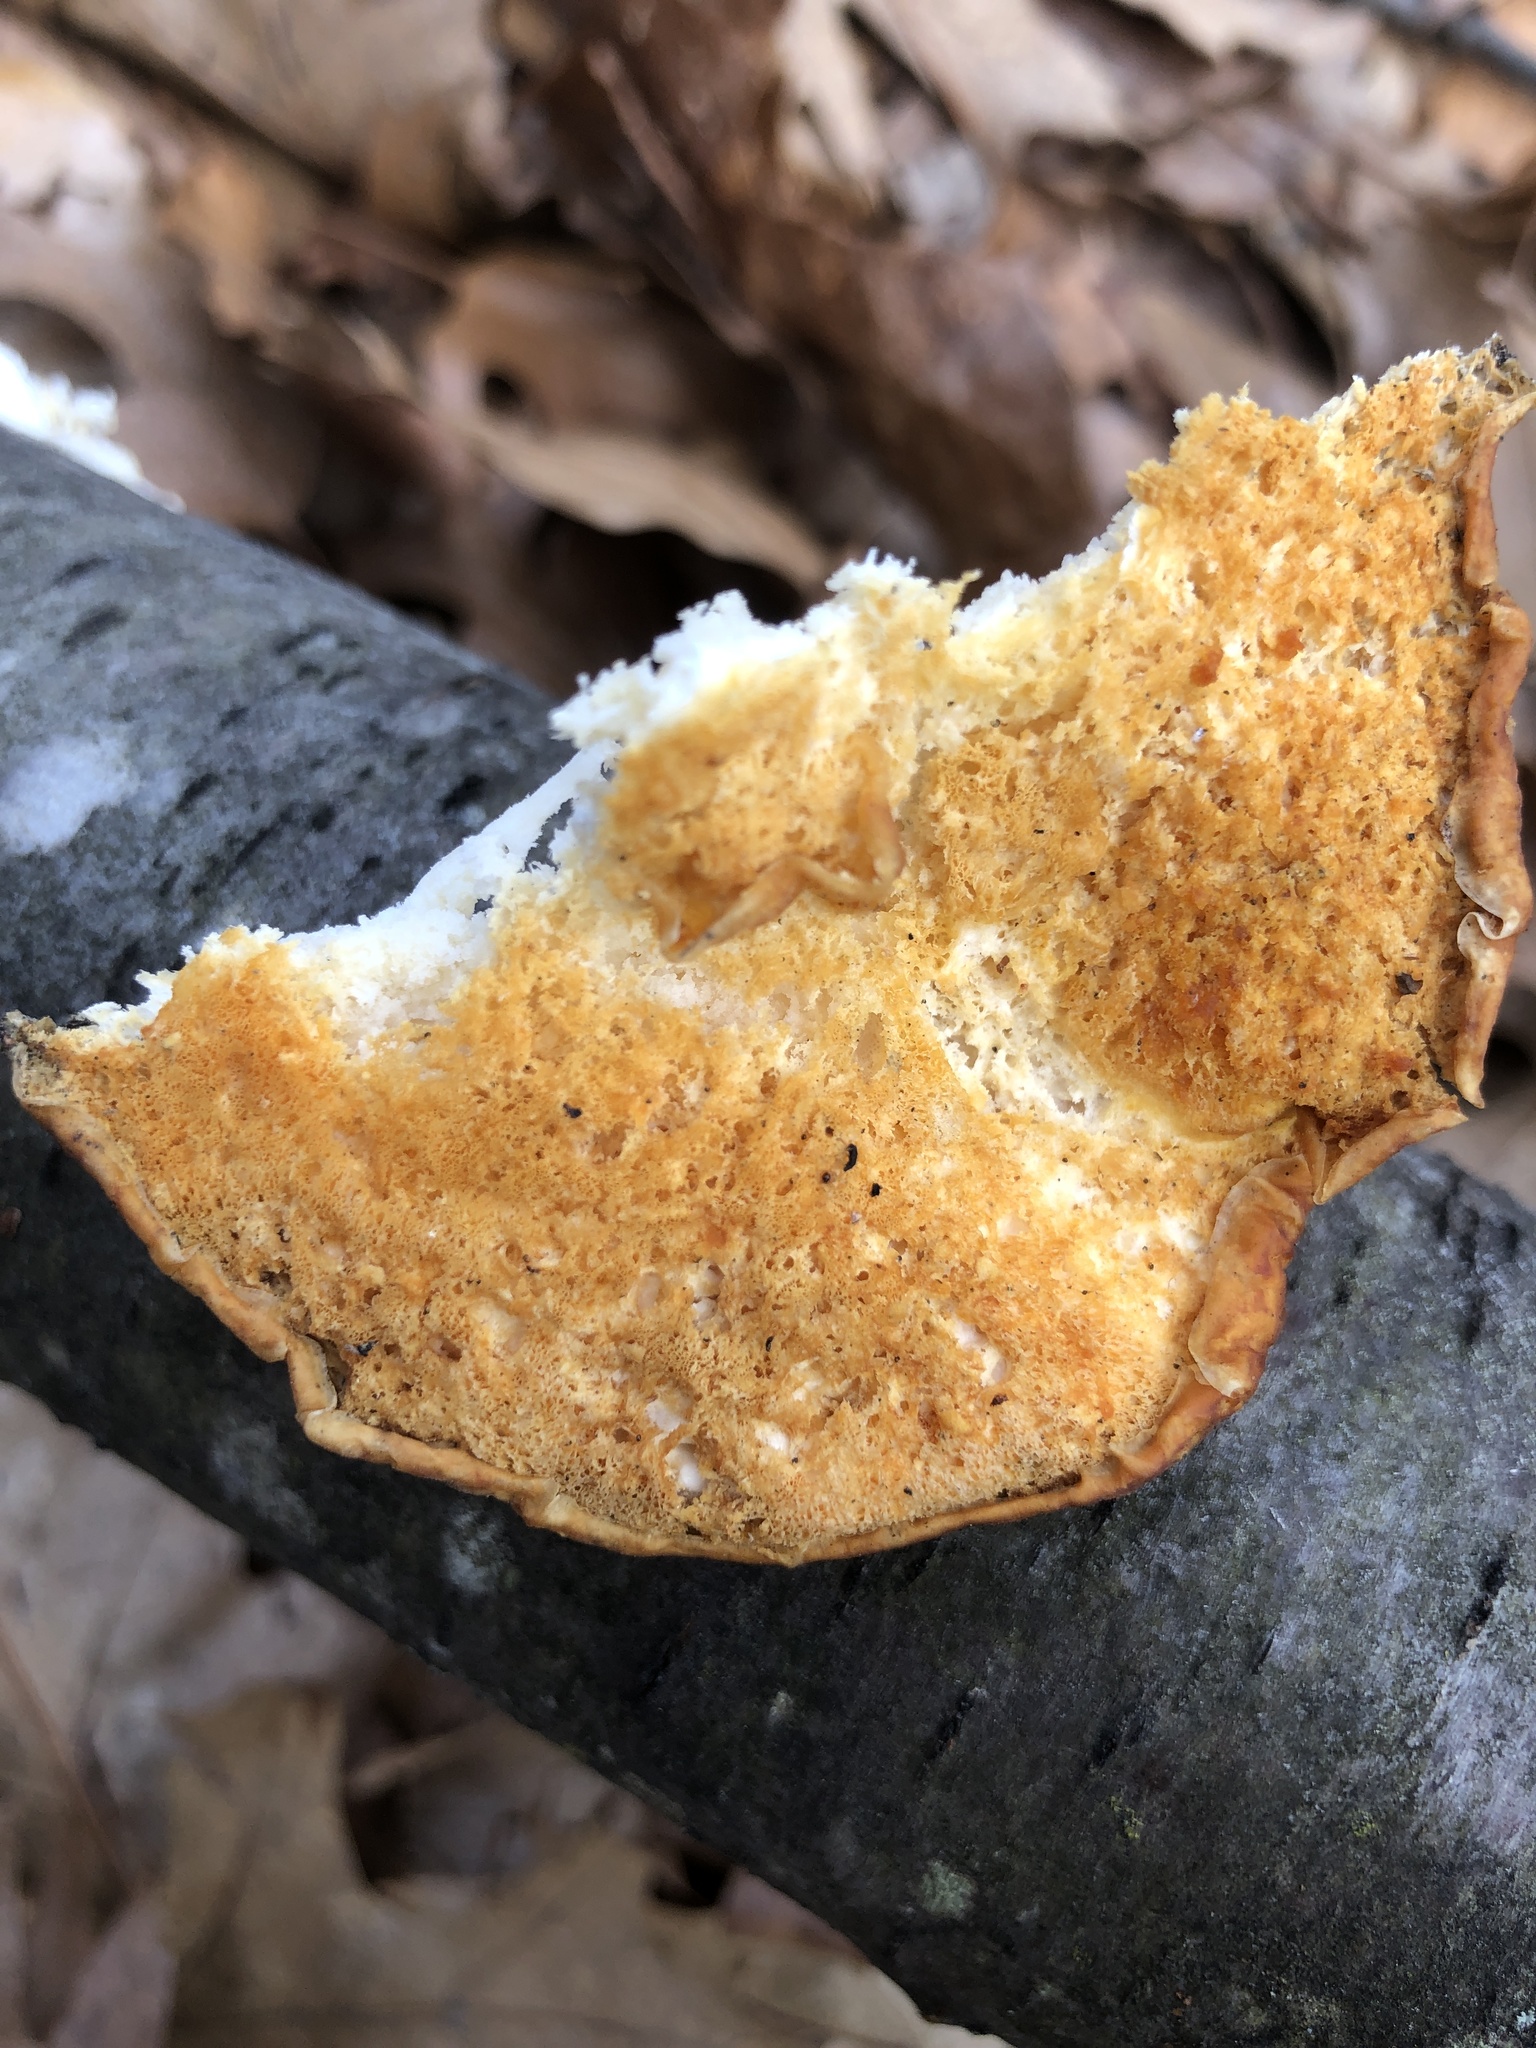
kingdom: Fungi
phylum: Basidiomycota
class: Agaricomycetes
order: Polyporales
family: Incrustoporiaceae
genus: Tyromyces
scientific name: Tyromyces chioneus
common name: White cheese polypore
